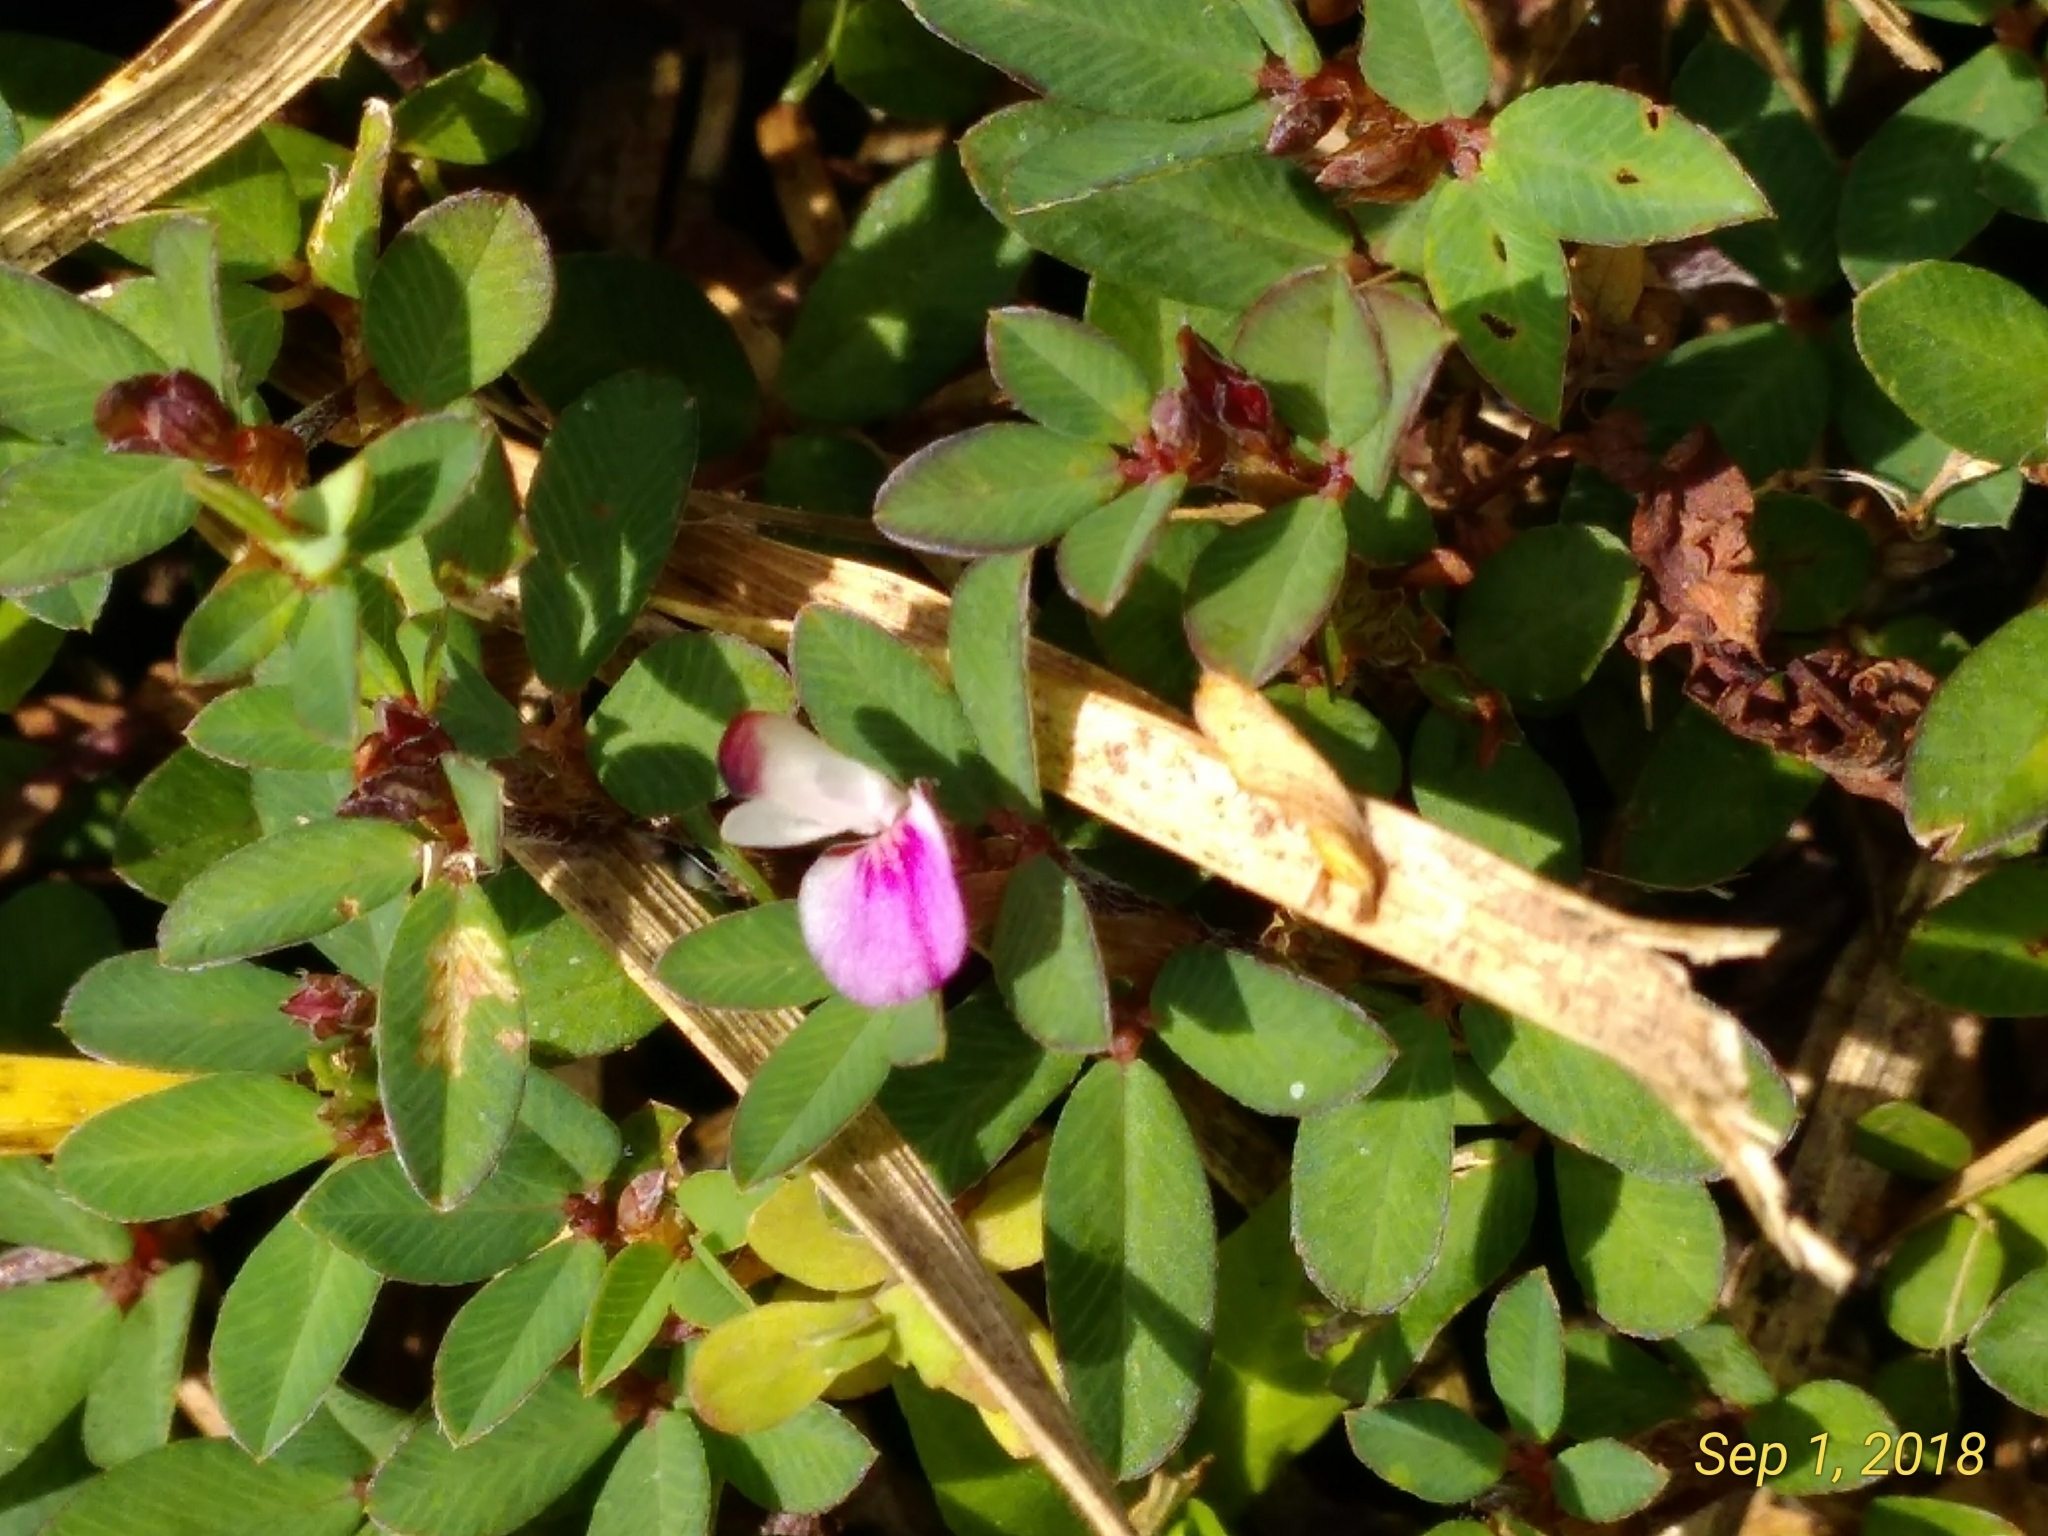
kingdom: Plantae
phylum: Tracheophyta
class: Magnoliopsida
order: Fabales
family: Fabaceae
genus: Kummerowia
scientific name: Kummerowia striata
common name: Japanese clover
